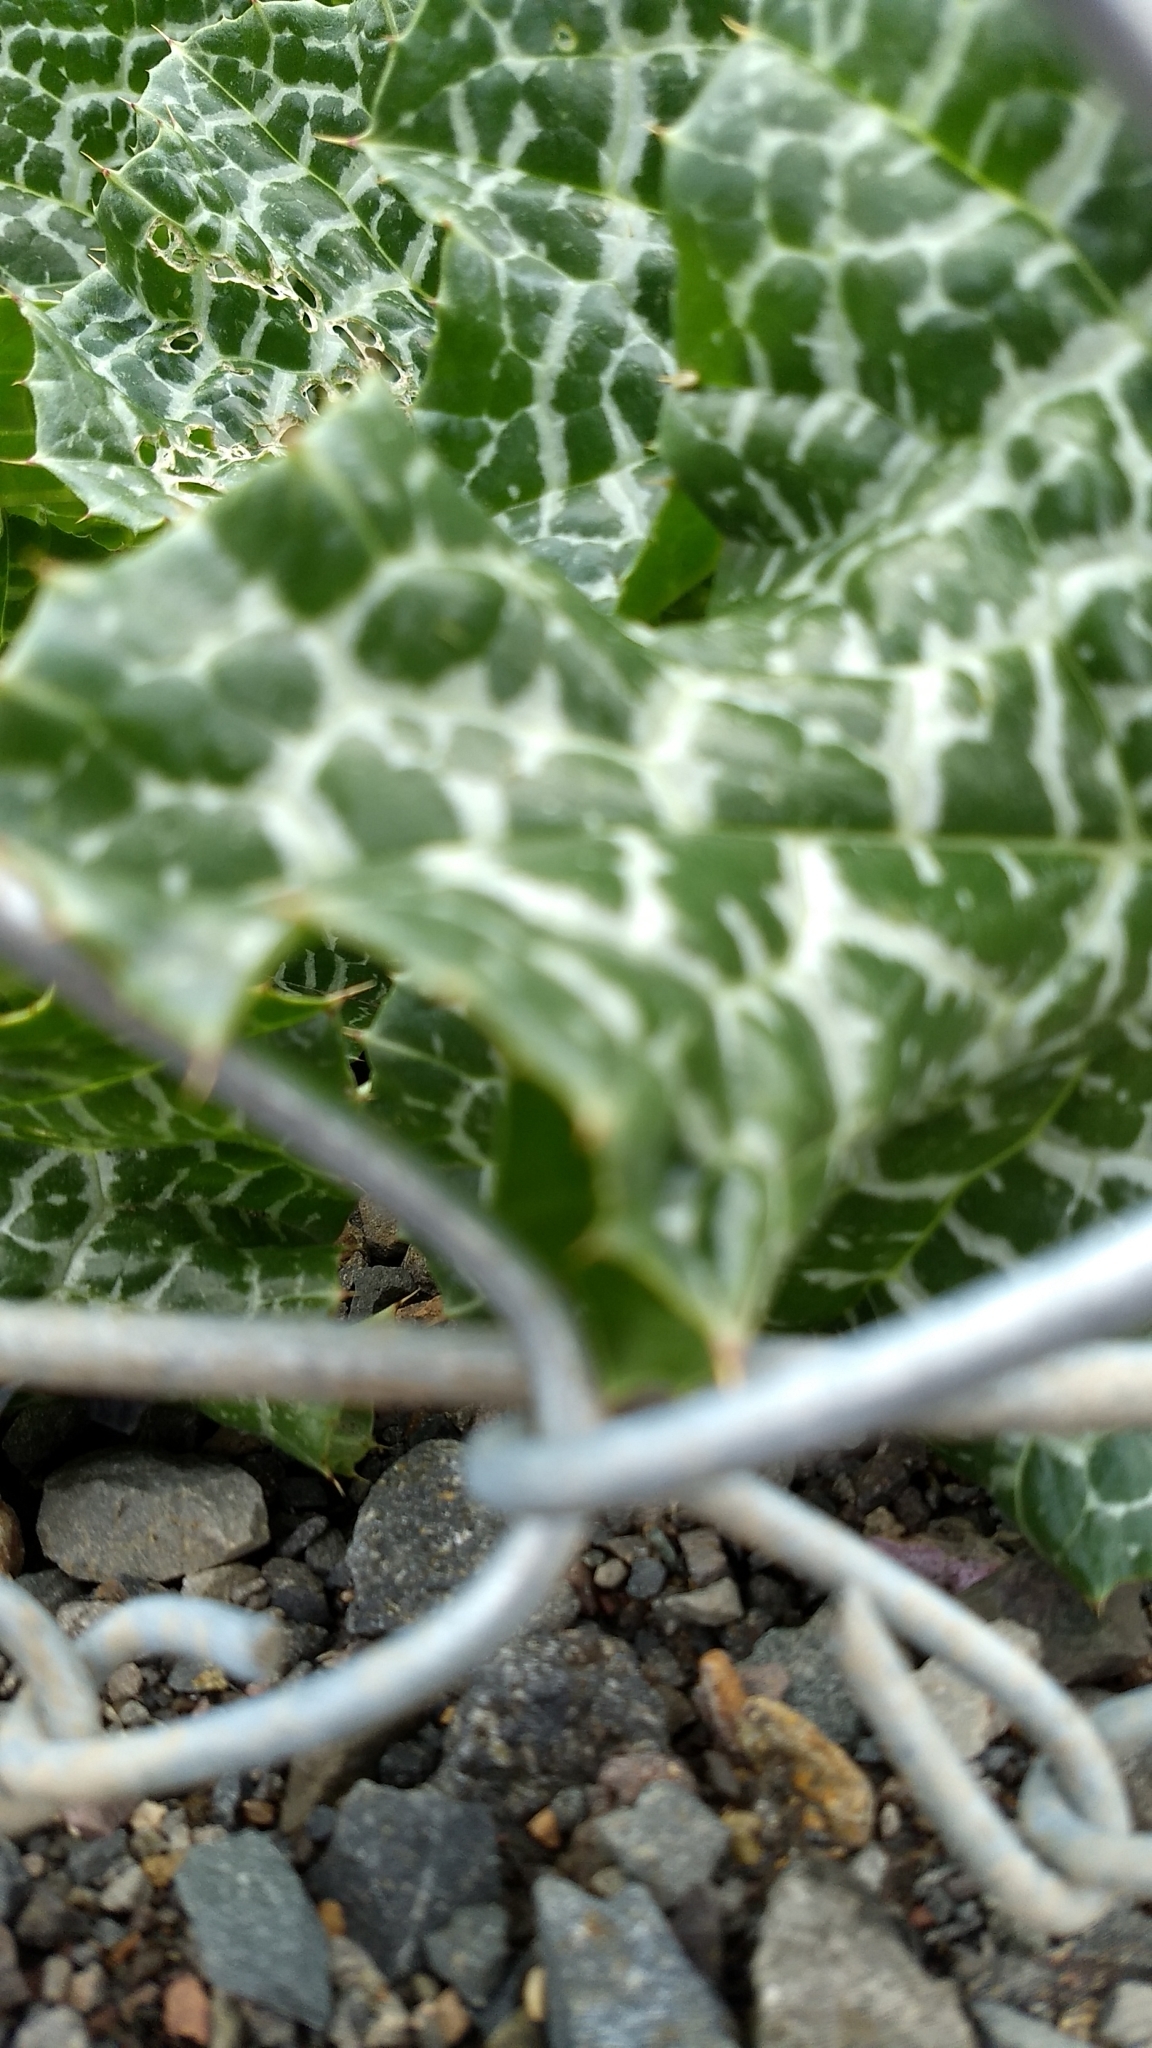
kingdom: Plantae
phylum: Tracheophyta
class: Magnoliopsida
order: Asterales
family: Asteraceae
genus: Silybum
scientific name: Silybum marianum
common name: Milk thistle
